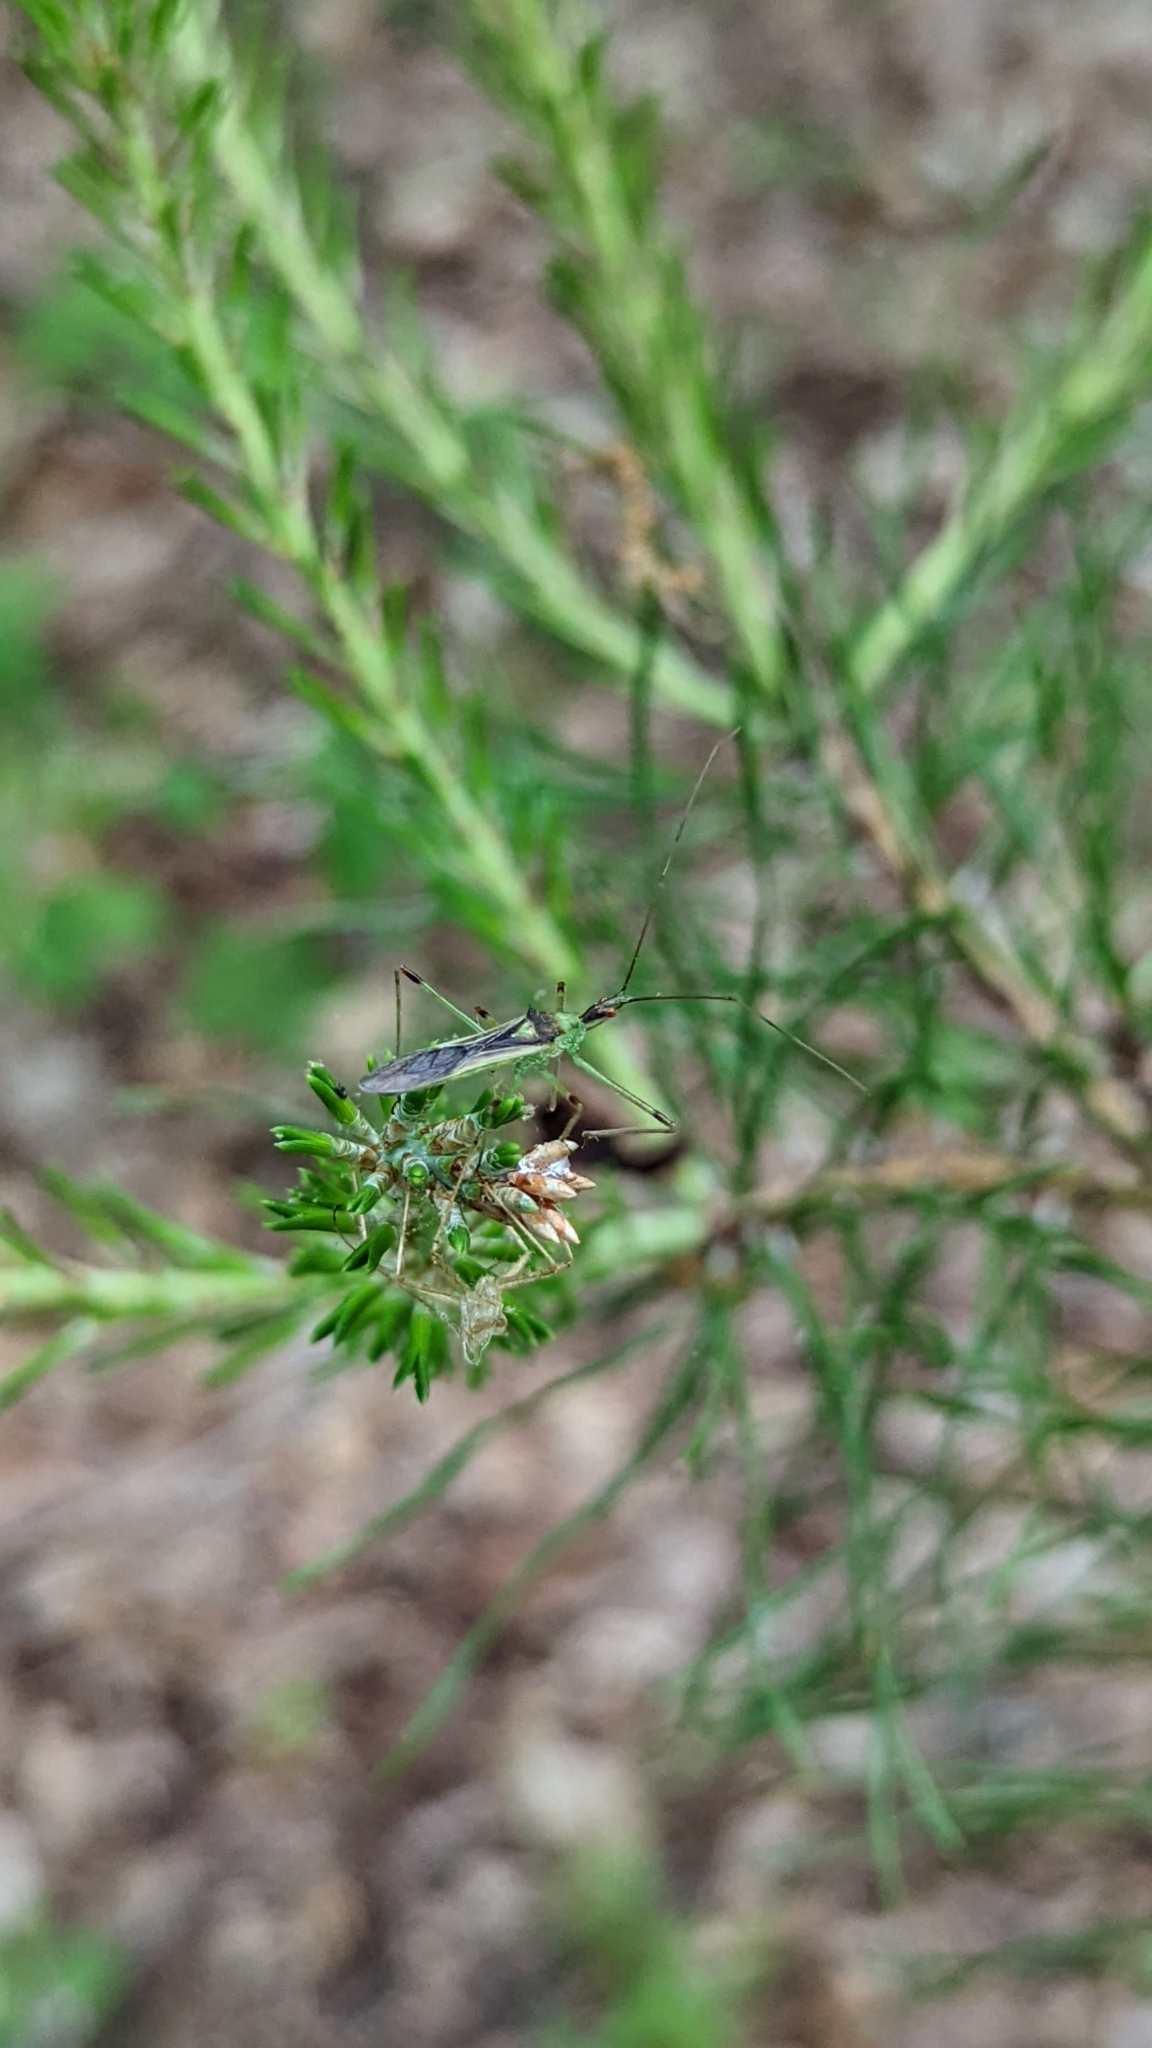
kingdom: Animalia
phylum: Arthropoda
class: Insecta
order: Hemiptera
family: Reduviidae
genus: Zelus
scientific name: Zelus luridus
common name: Pale green assassin bug
